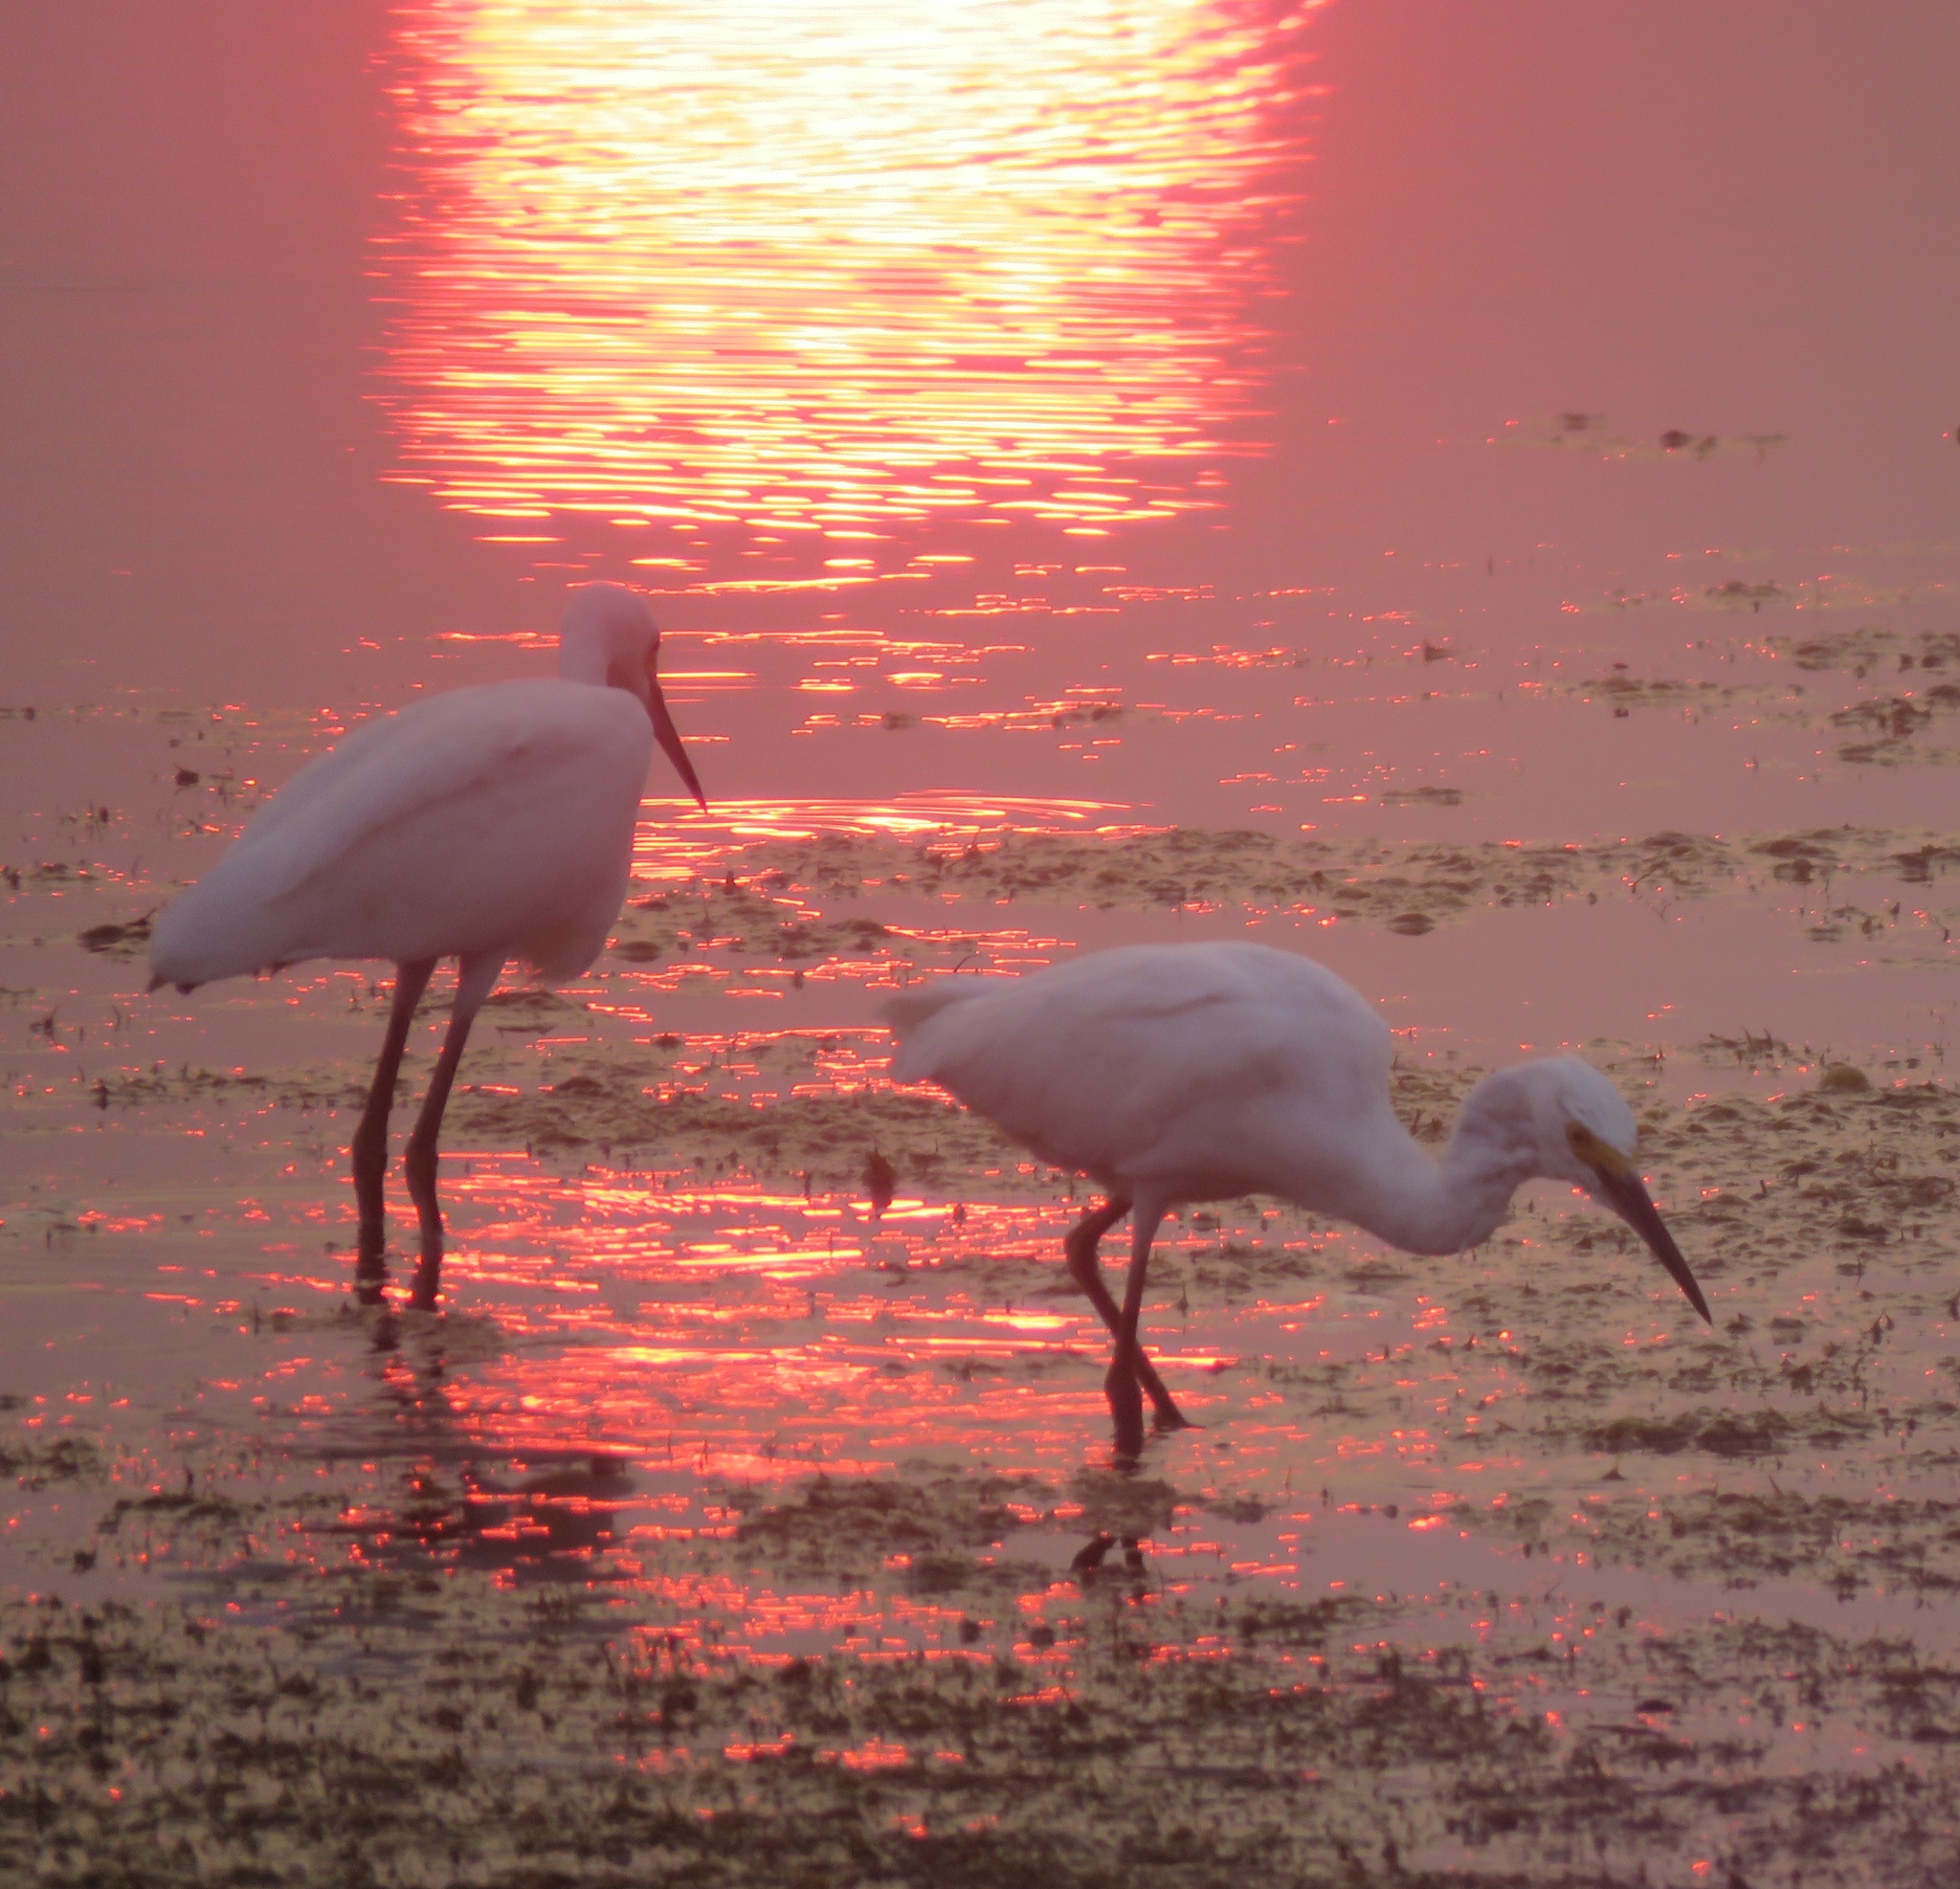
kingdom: Animalia
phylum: Chordata
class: Aves
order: Pelecaniformes
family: Ardeidae
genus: Egretta
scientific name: Egretta thula
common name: Snowy egret
